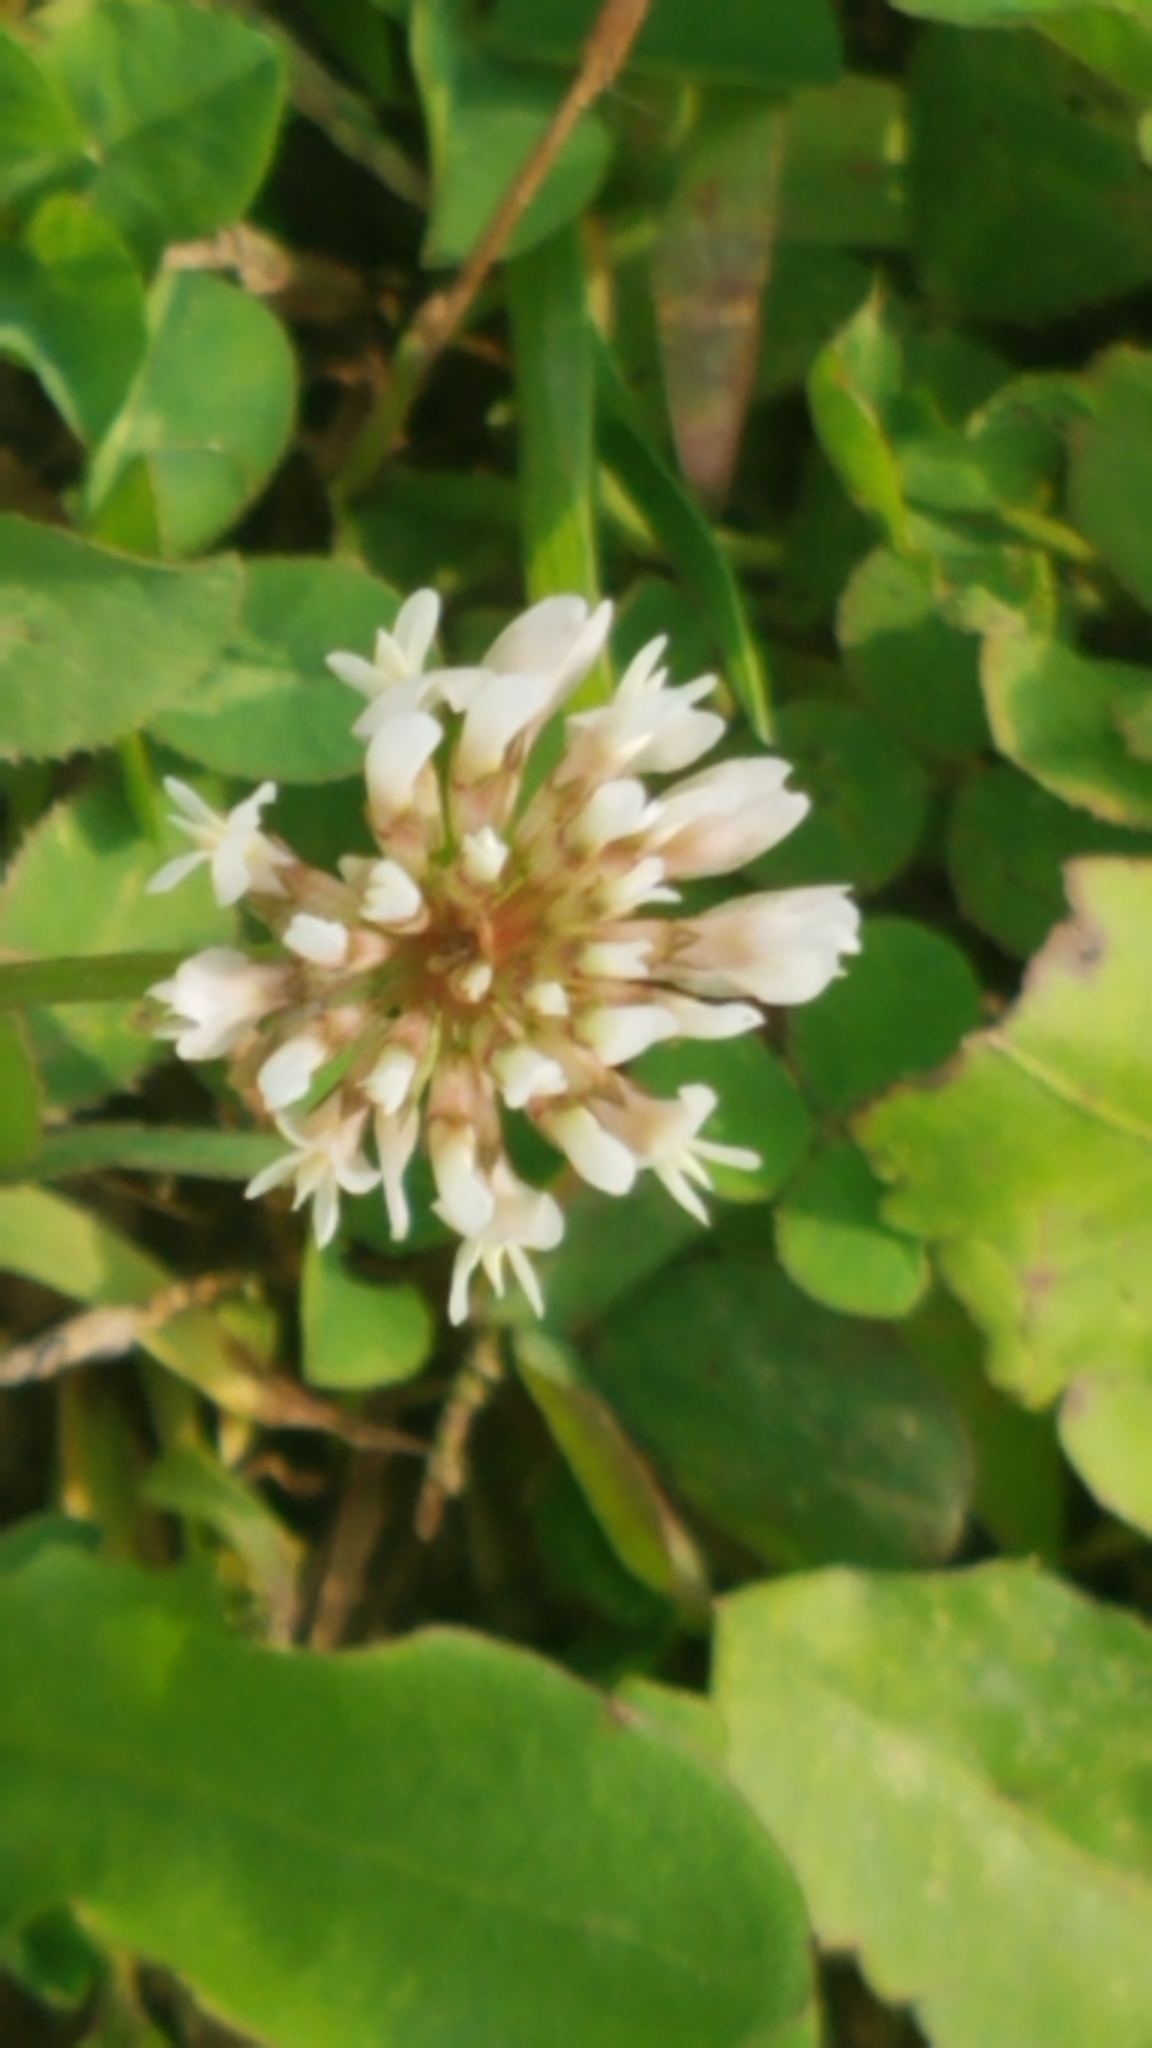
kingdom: Plantae
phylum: Tracheophyta
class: Magnoliopsida
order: Fabales
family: Fabaceae
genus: Trifolium
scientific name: Trifolium repens
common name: White clover
